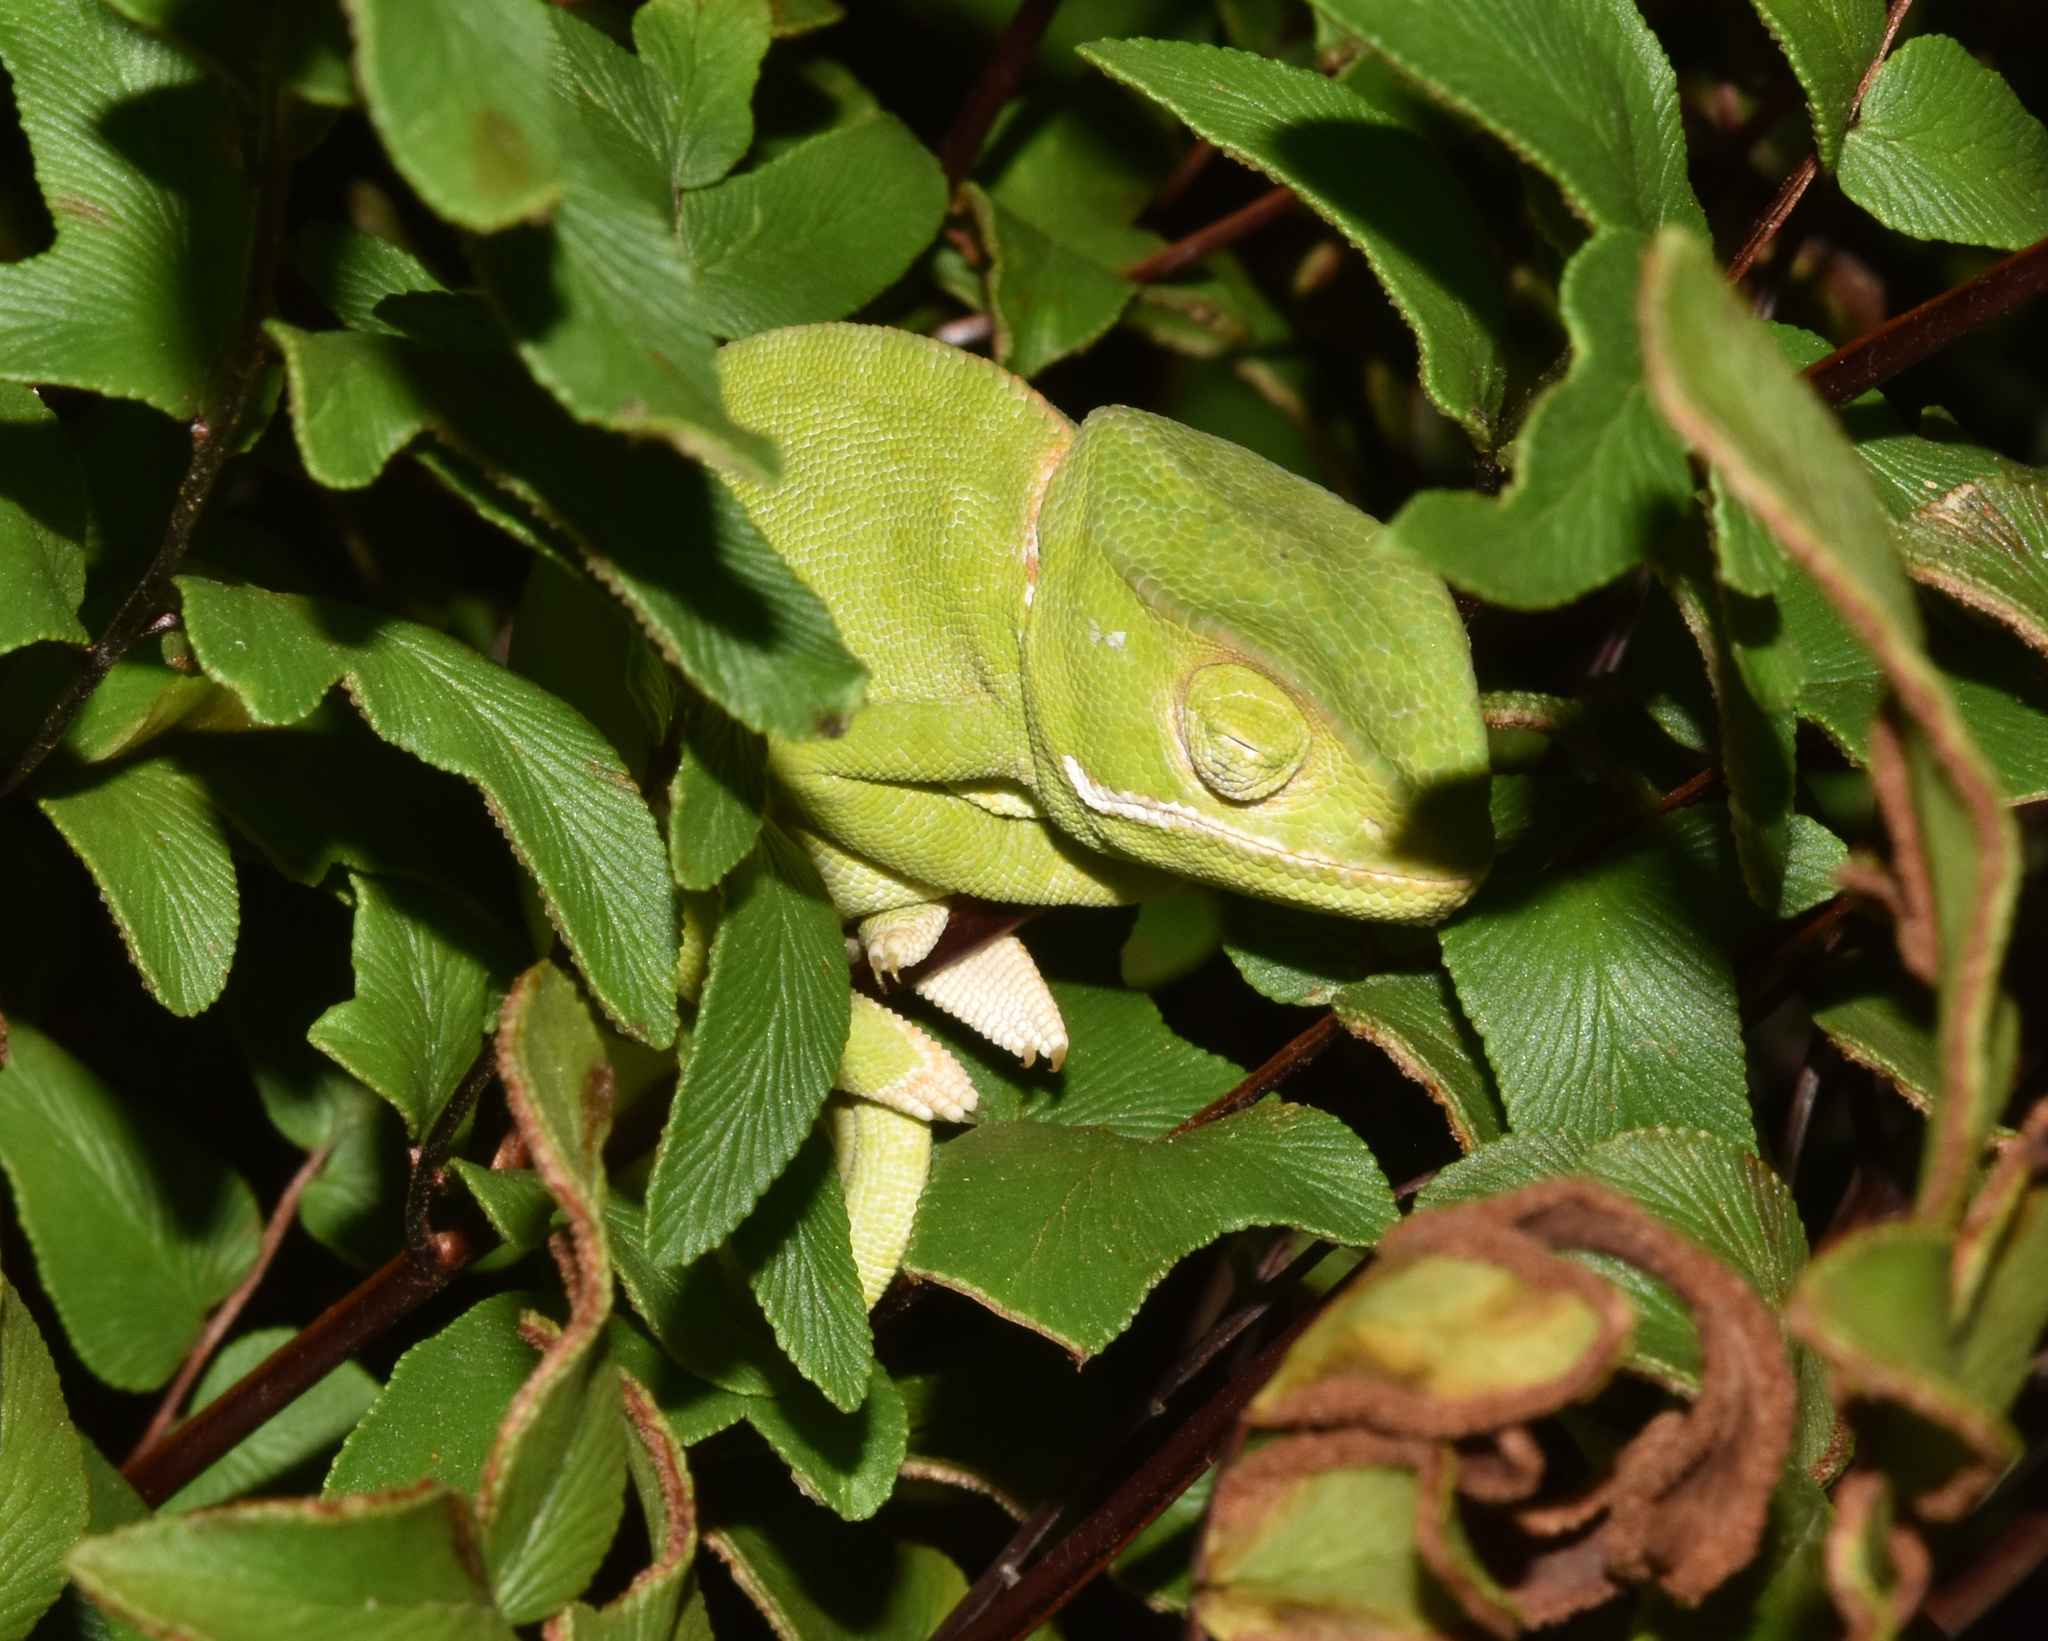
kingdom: Animalia
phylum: Chordata
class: Squamata
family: Chamaeleonidae
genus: Chamaeleo
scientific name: Chamaeleo dilepis
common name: Flapneck chameleon
